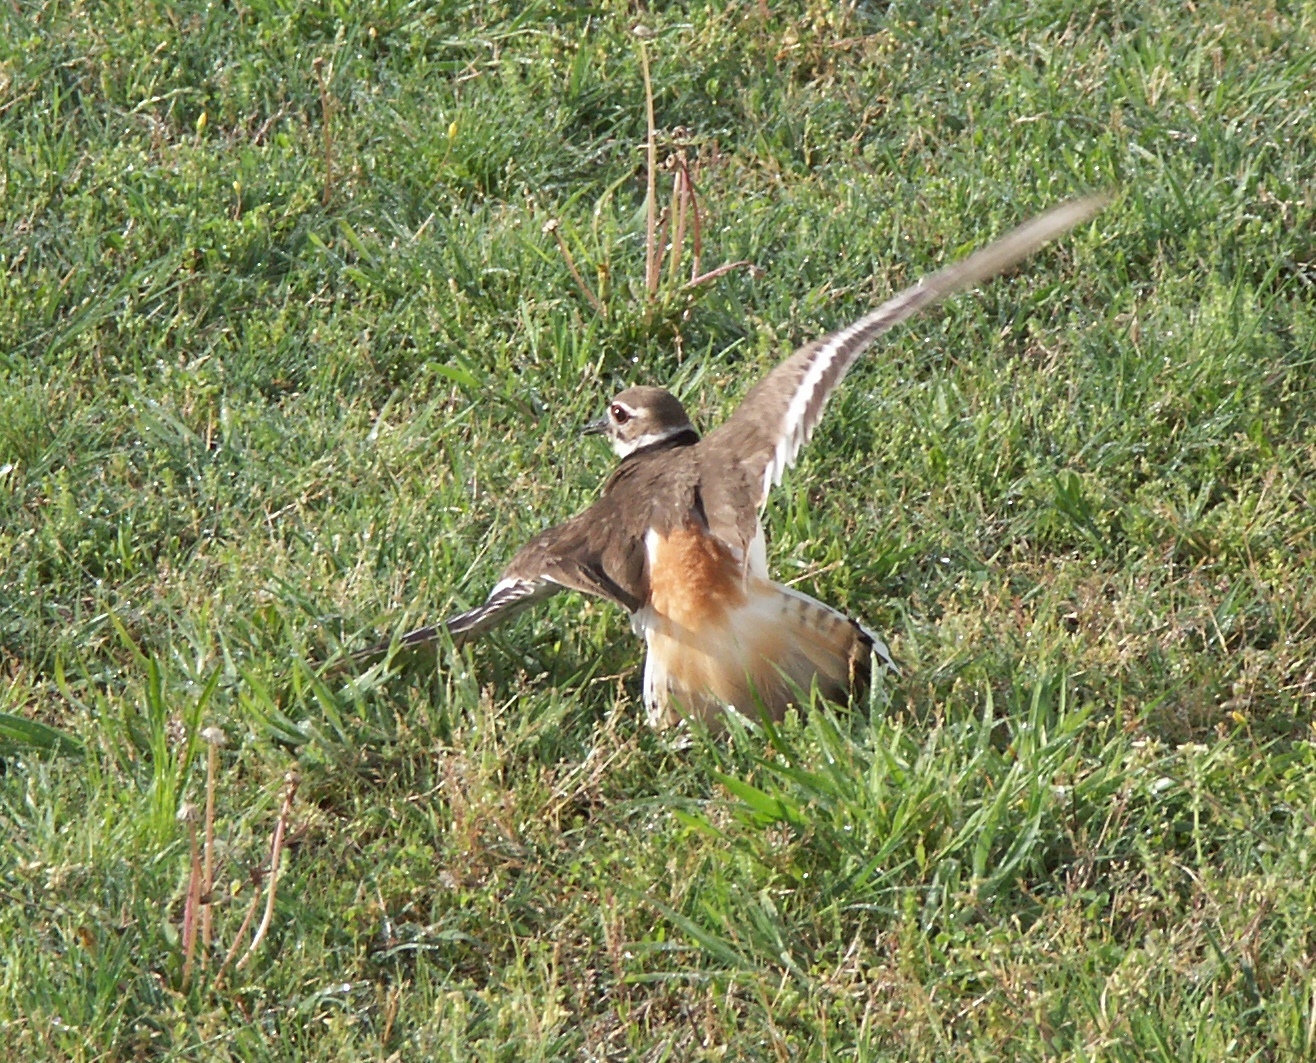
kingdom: Animalia
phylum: Chordata
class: Aves
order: Charadriiformes
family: Charadriidae
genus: Charadrius
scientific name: Charadrius vociferus
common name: Killdeer
